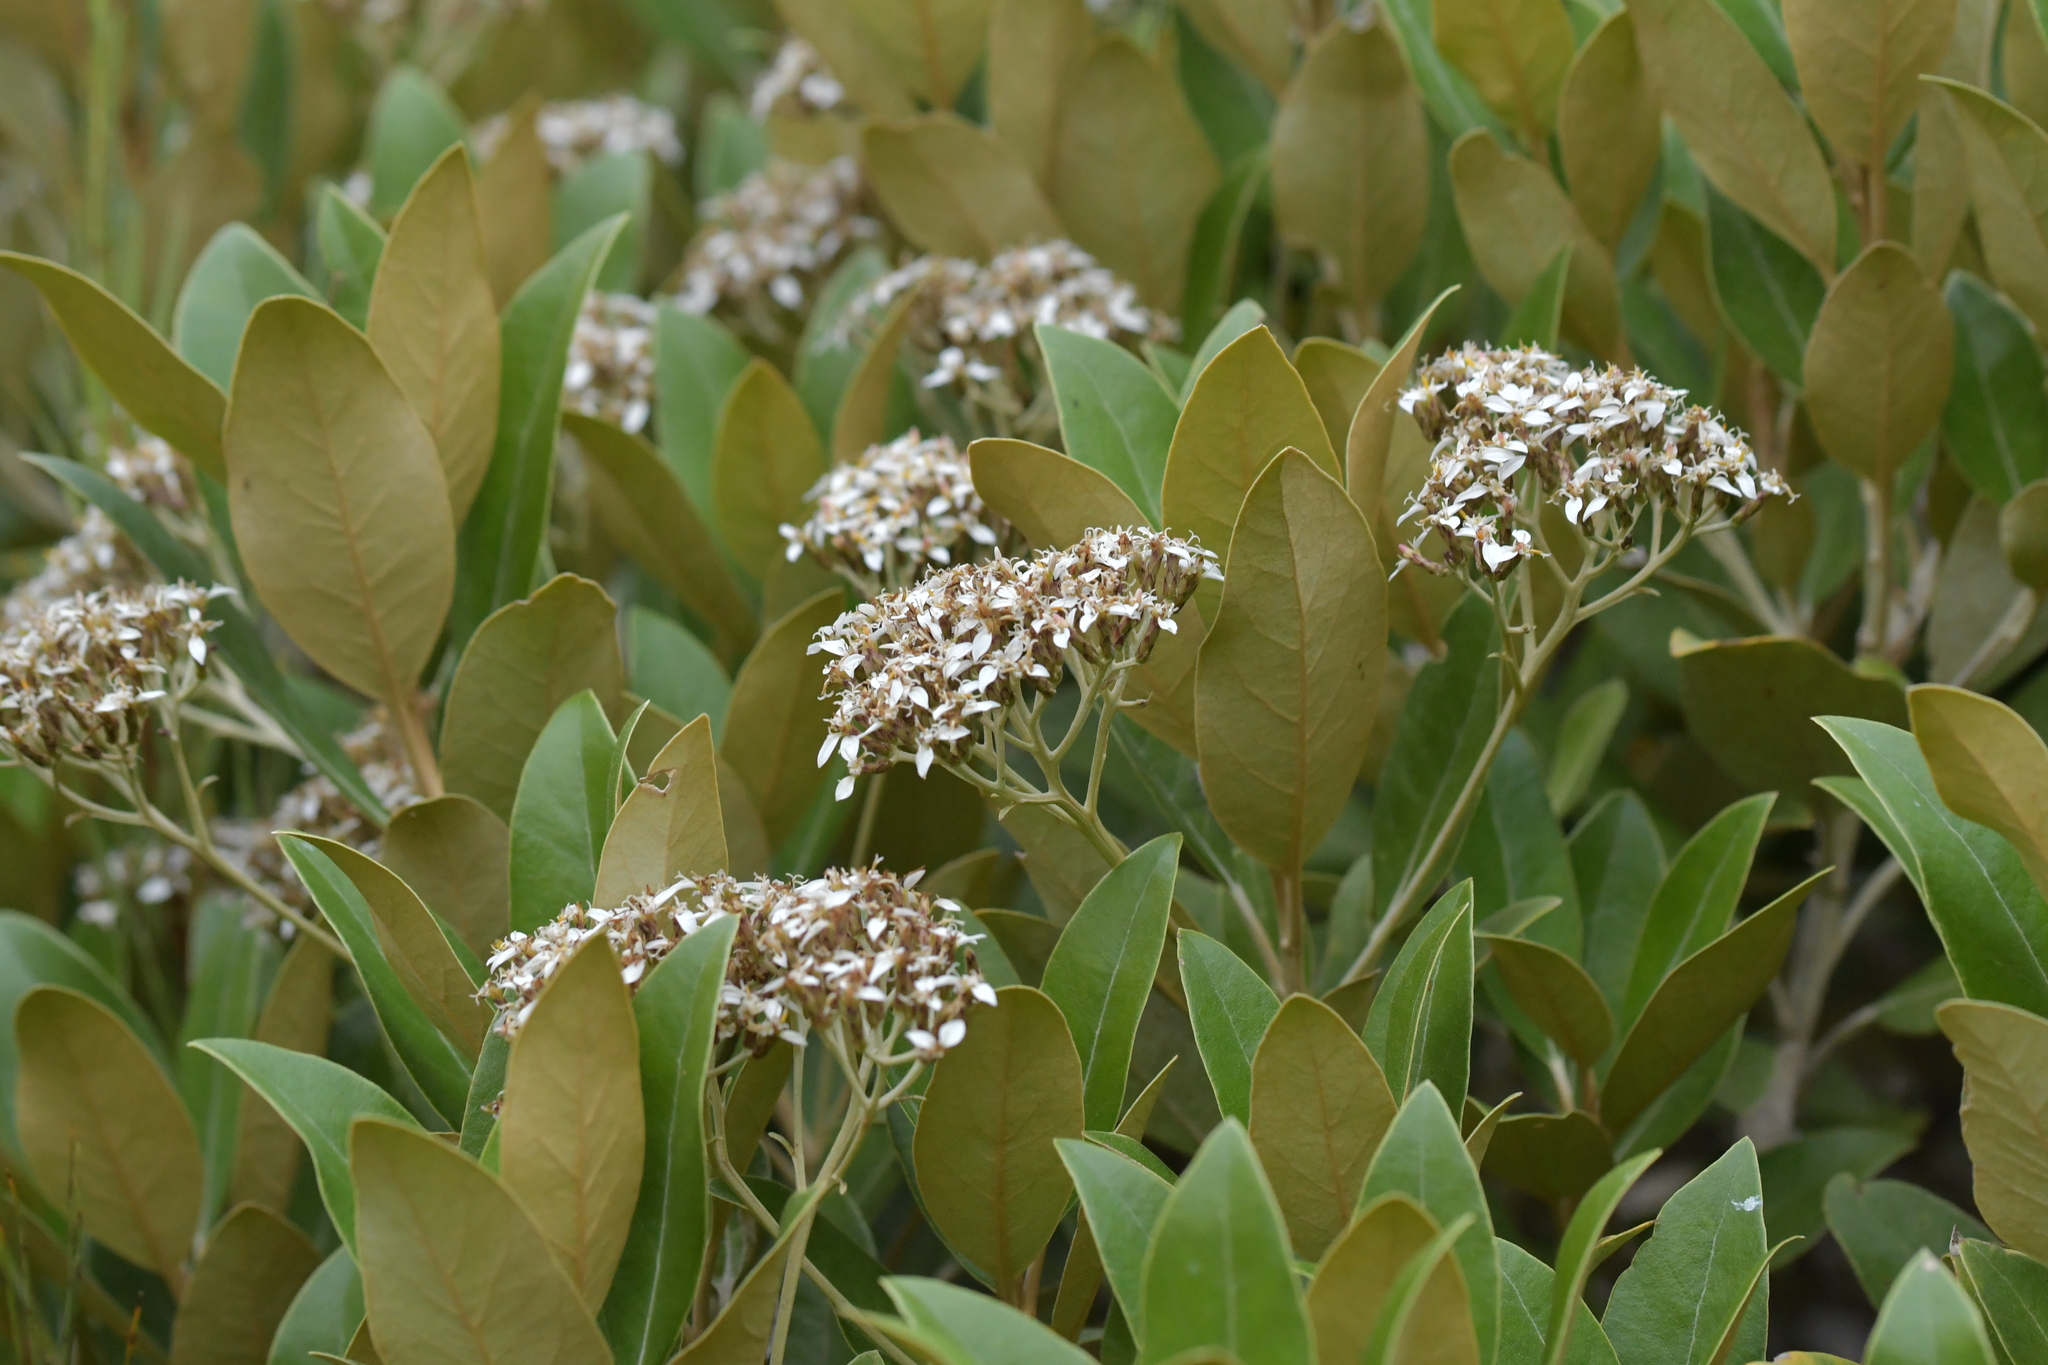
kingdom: Plantae
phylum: Tracheophyta
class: Magnoliopsida
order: Asterales
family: Asteraceae
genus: Olearia
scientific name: Olearia avicenniifolia
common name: Mangrove-leaf daisybush
